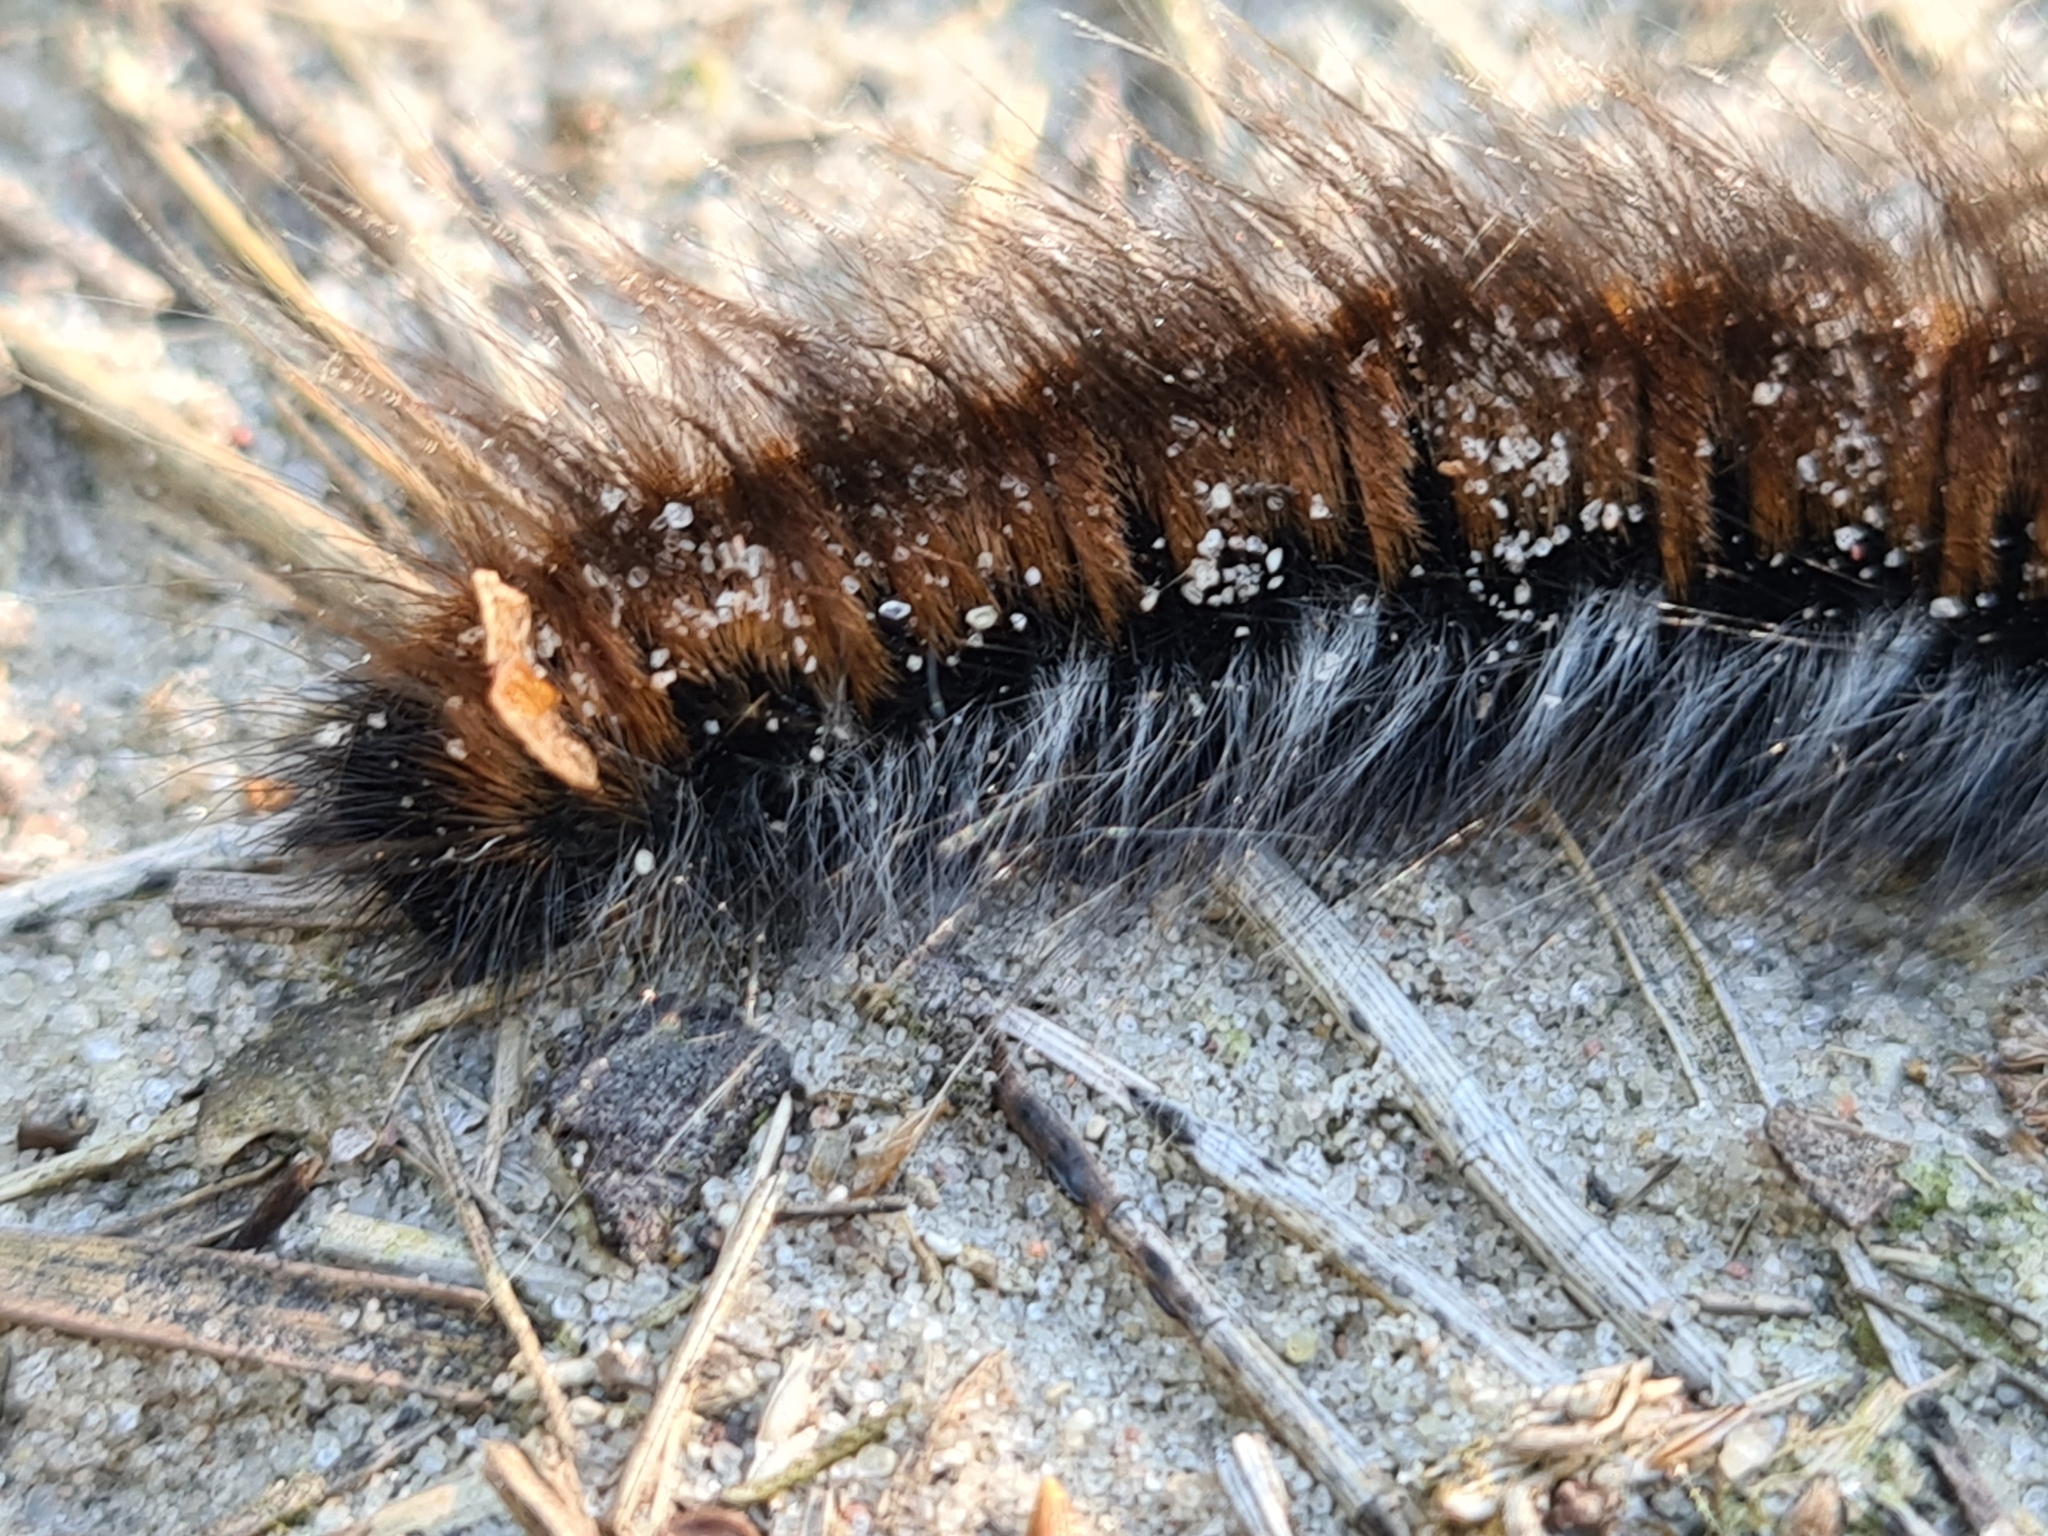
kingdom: Animalia
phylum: Arthropoda
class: Insecta
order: Lepidoptera
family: Lasiocampidae
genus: Macrothylacia
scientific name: Macrothylacia rubi
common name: Fox moth
